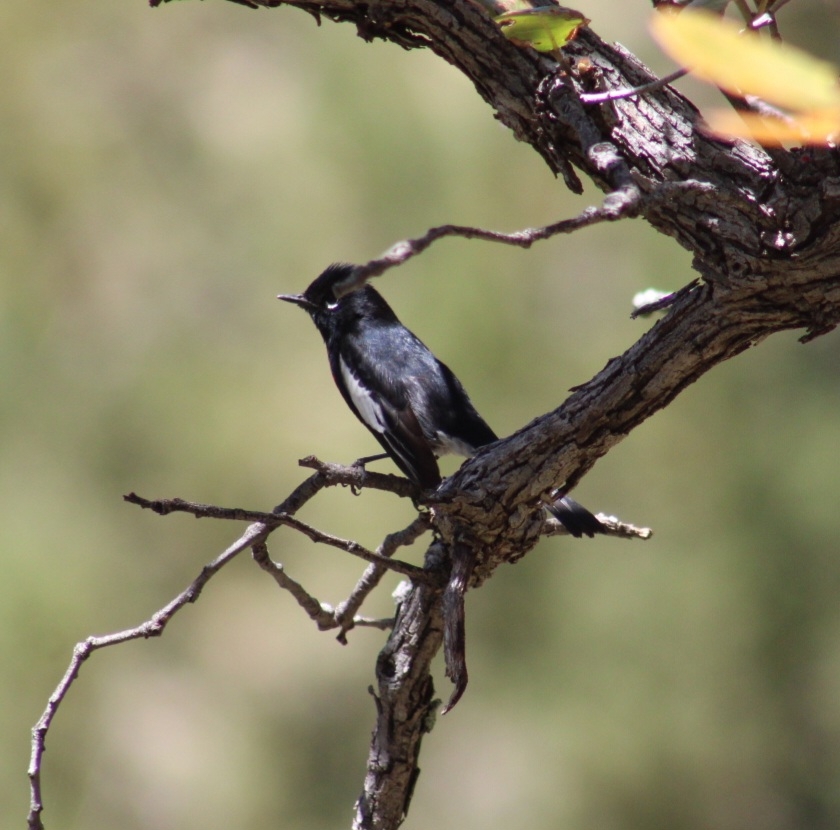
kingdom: Animalia
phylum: Chordata
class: Aves
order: Passeriformes
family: Parulidae
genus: Myioborus
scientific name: Myioborus pictus
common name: Painted whitestart
